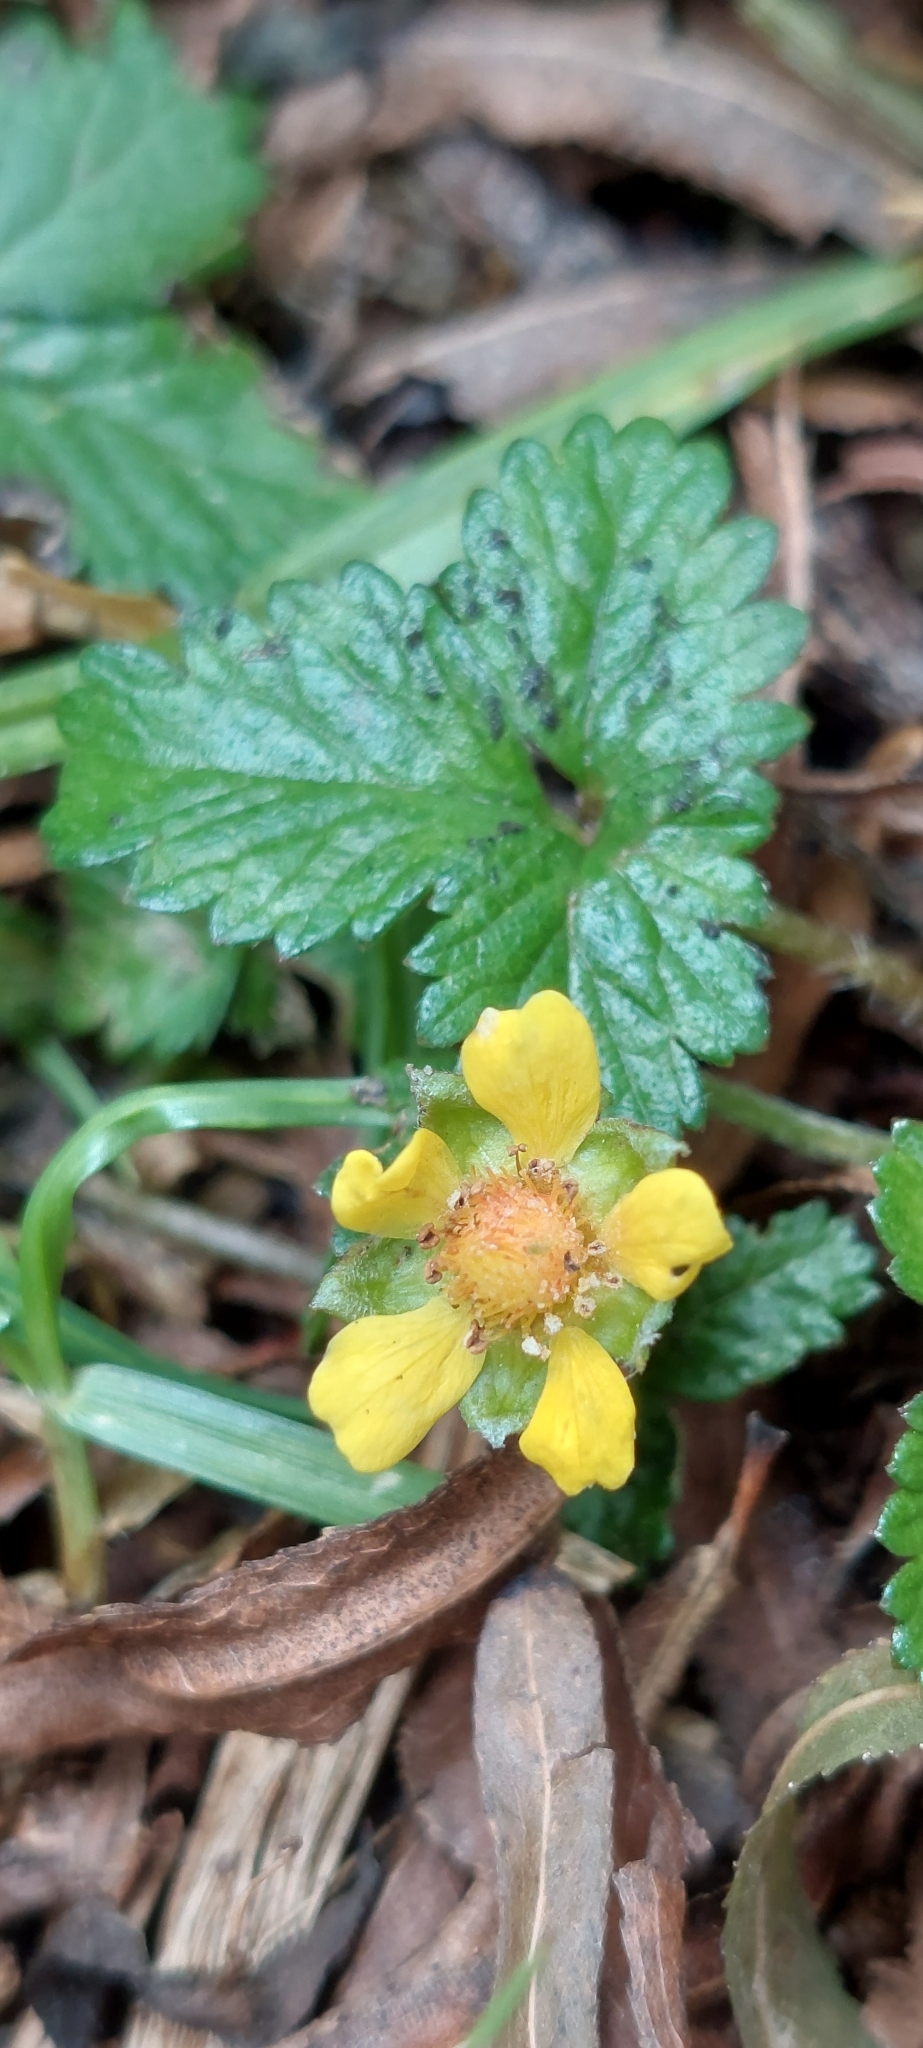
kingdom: Plantae
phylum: Tracheophyta
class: Magnoliopsida
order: Rosales
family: Rosaceae
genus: Potentilla
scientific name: Potentilla indica
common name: Yellow-flowered strawberry
